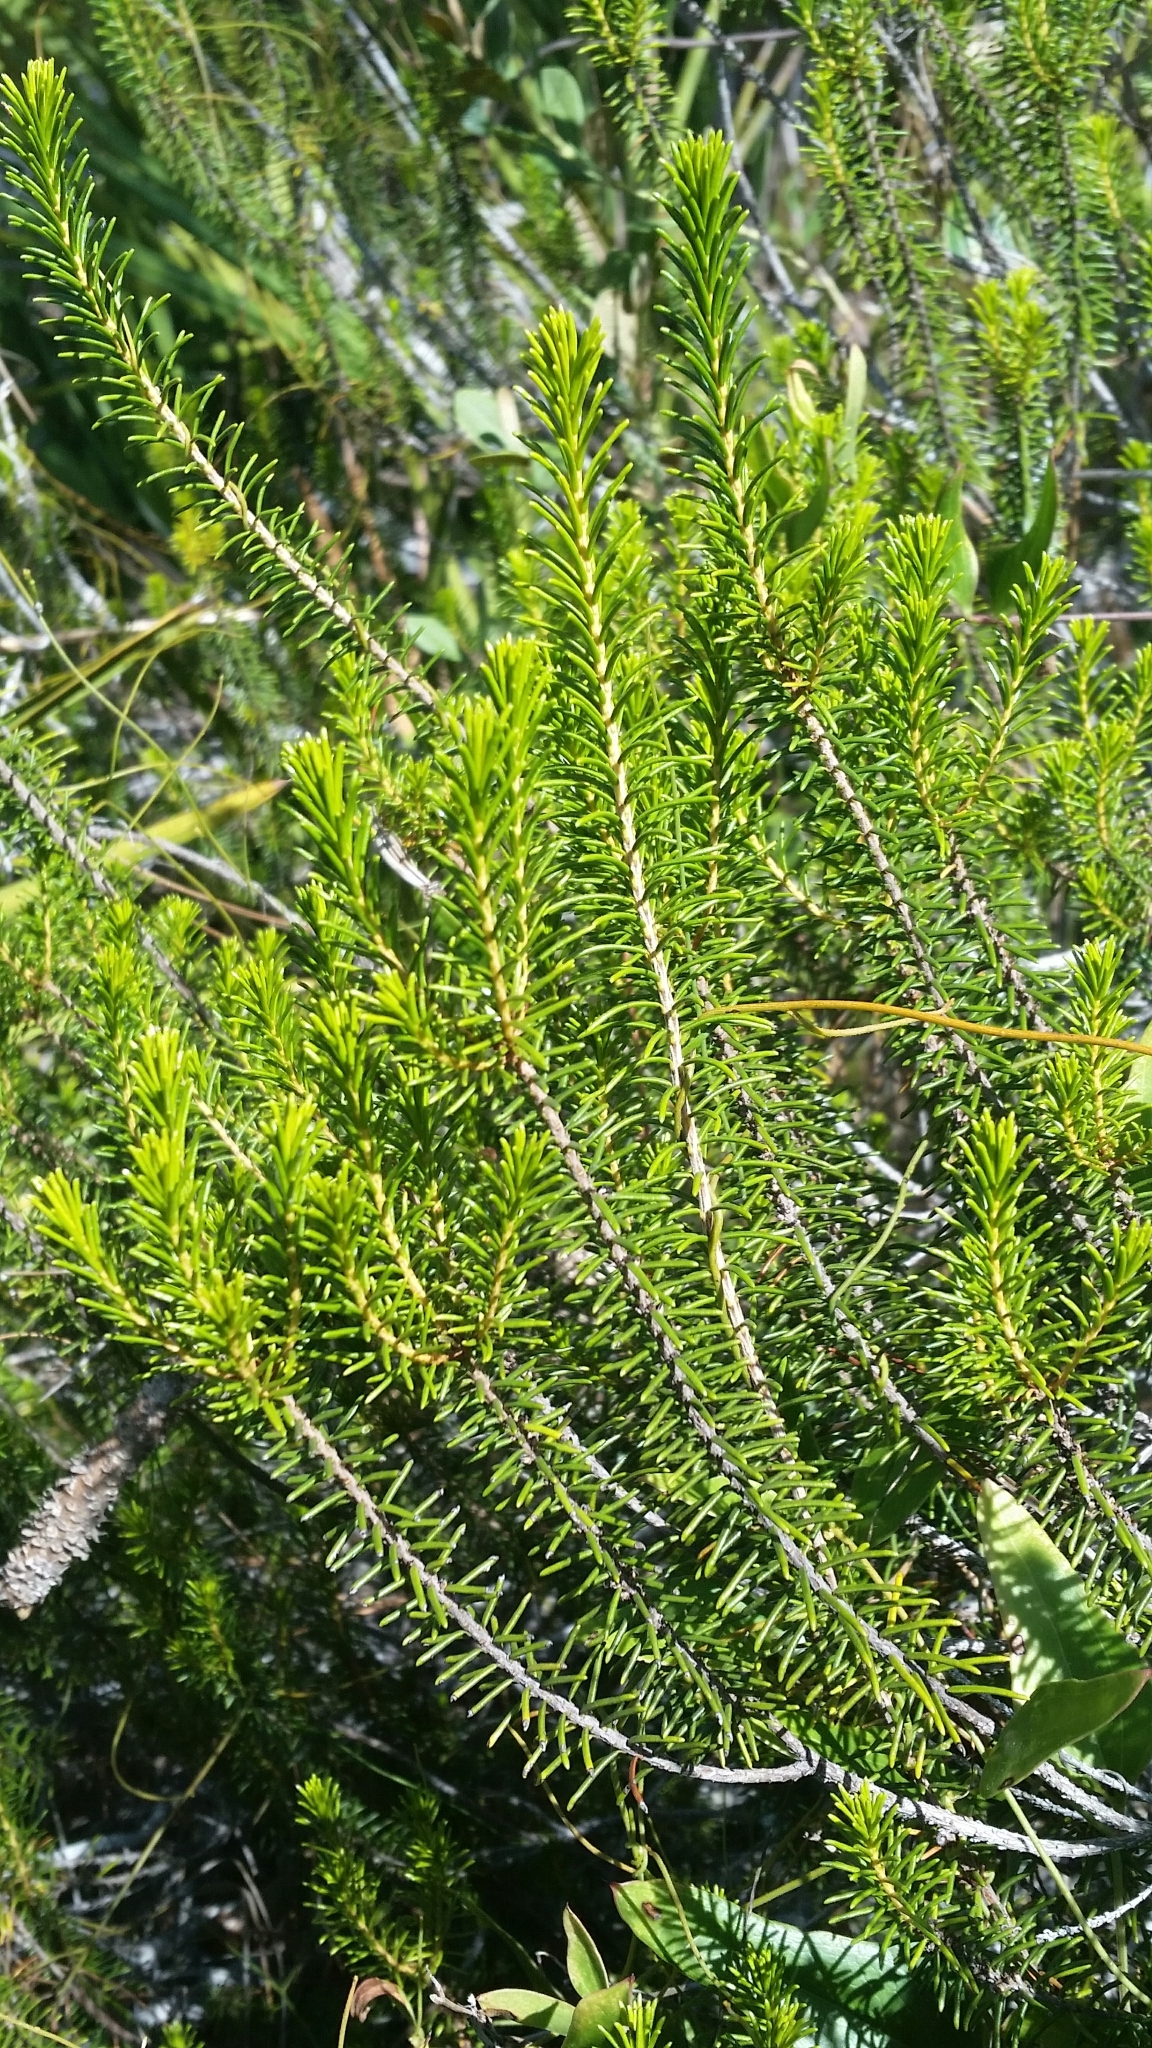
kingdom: Plantae
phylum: Tracheophyta
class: Magnoliopsida
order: Ericales
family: Ericaceae
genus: Ceratiola
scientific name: Ceratiola ericoides
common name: Sandhill-rosemary
